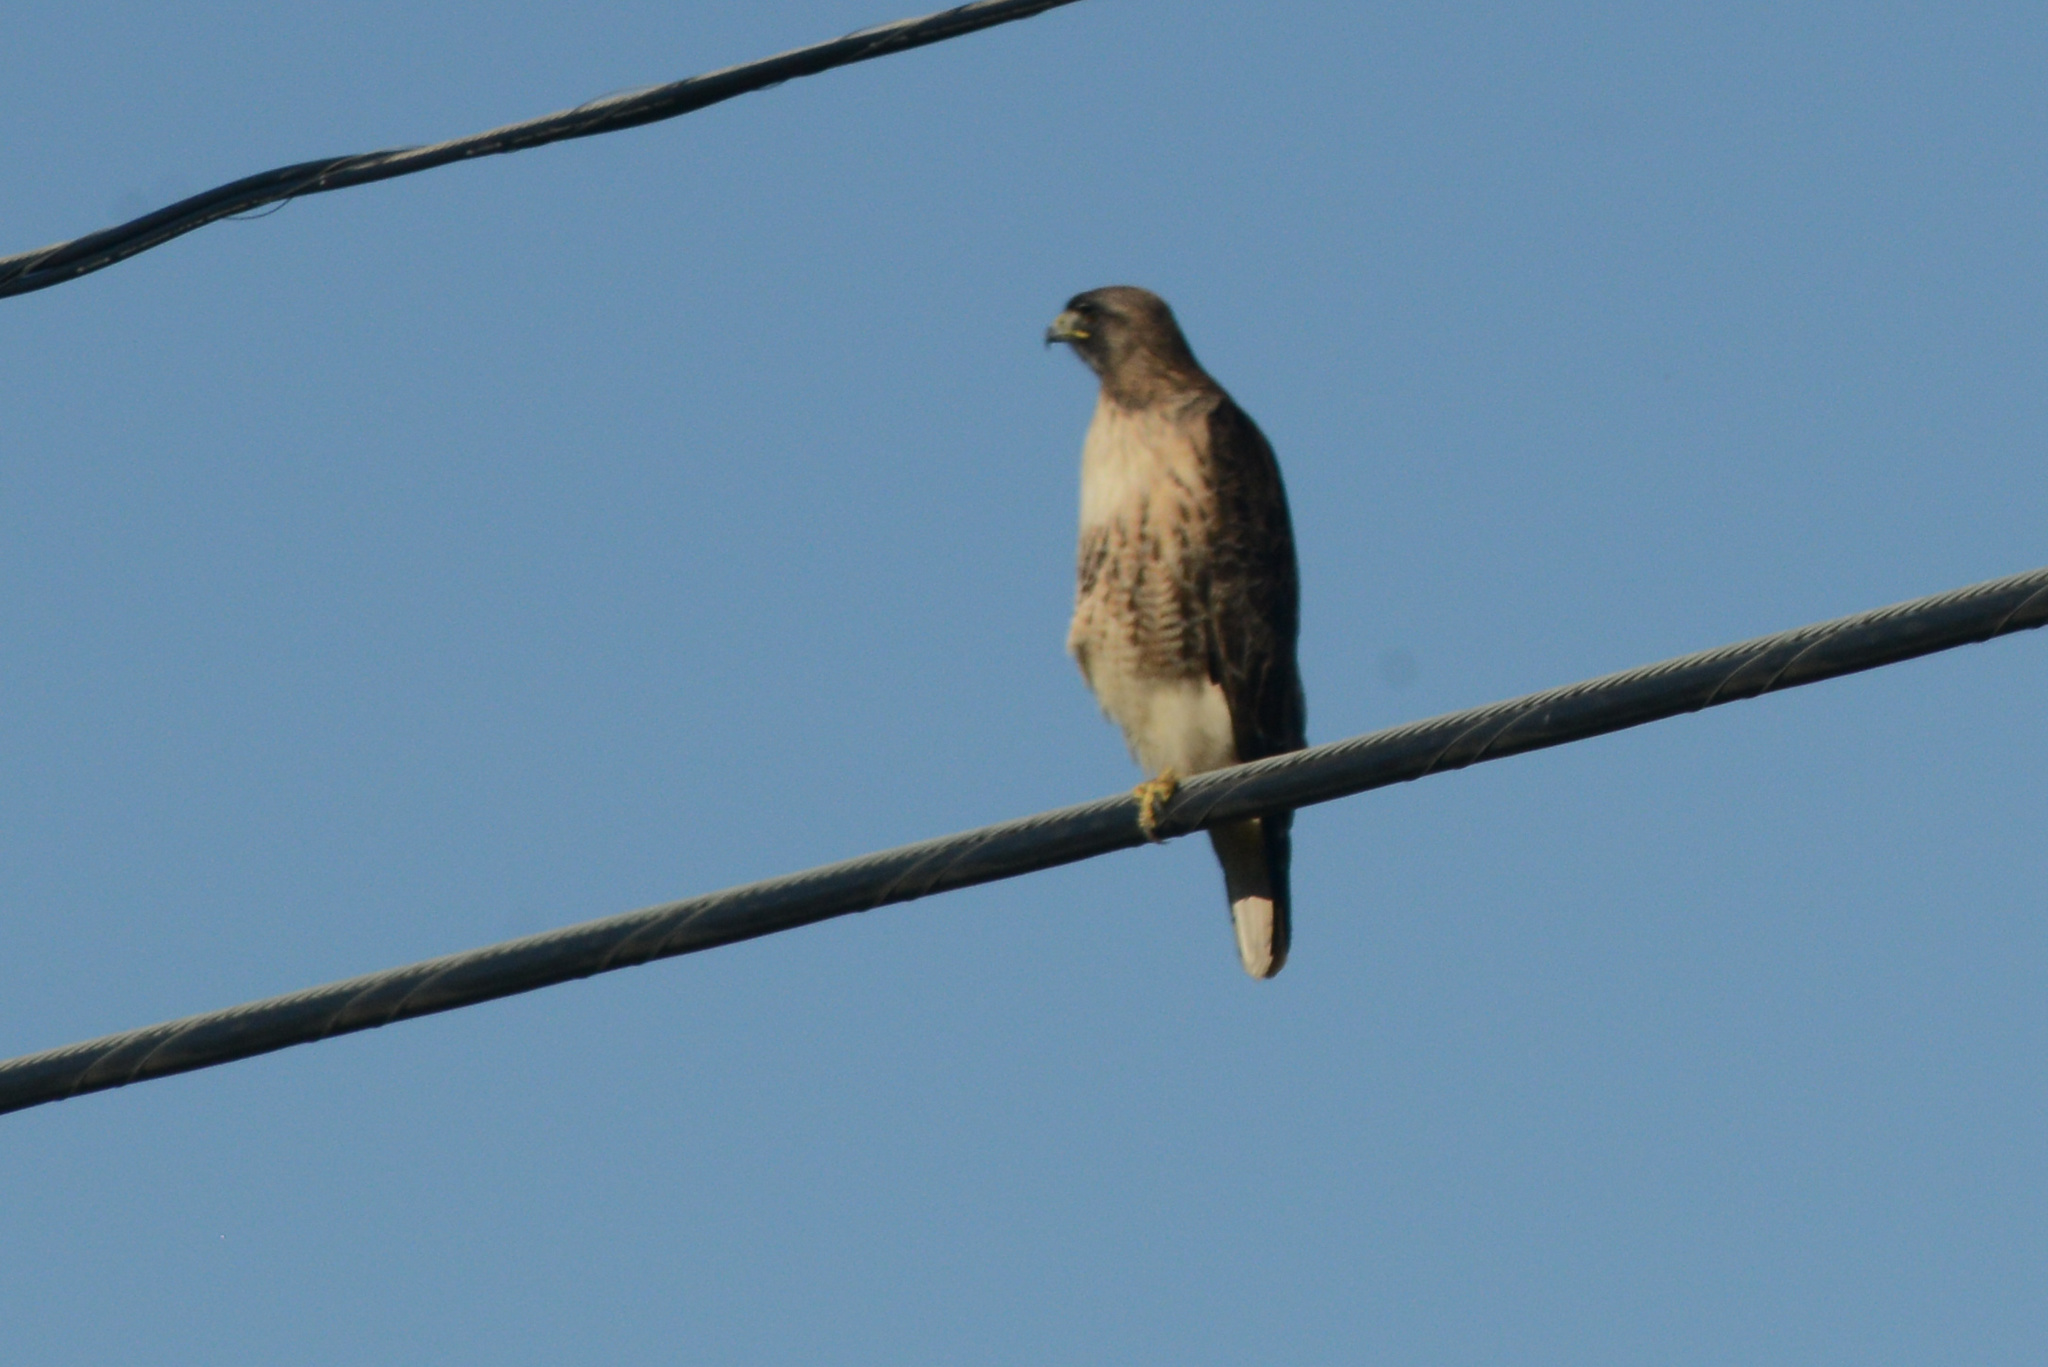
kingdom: Animalia
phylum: Chordata
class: Aves
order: Accipitriformes
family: Accipitridae
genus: Buteo
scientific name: Buteo jamaicensis
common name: Red-tailed hawk
